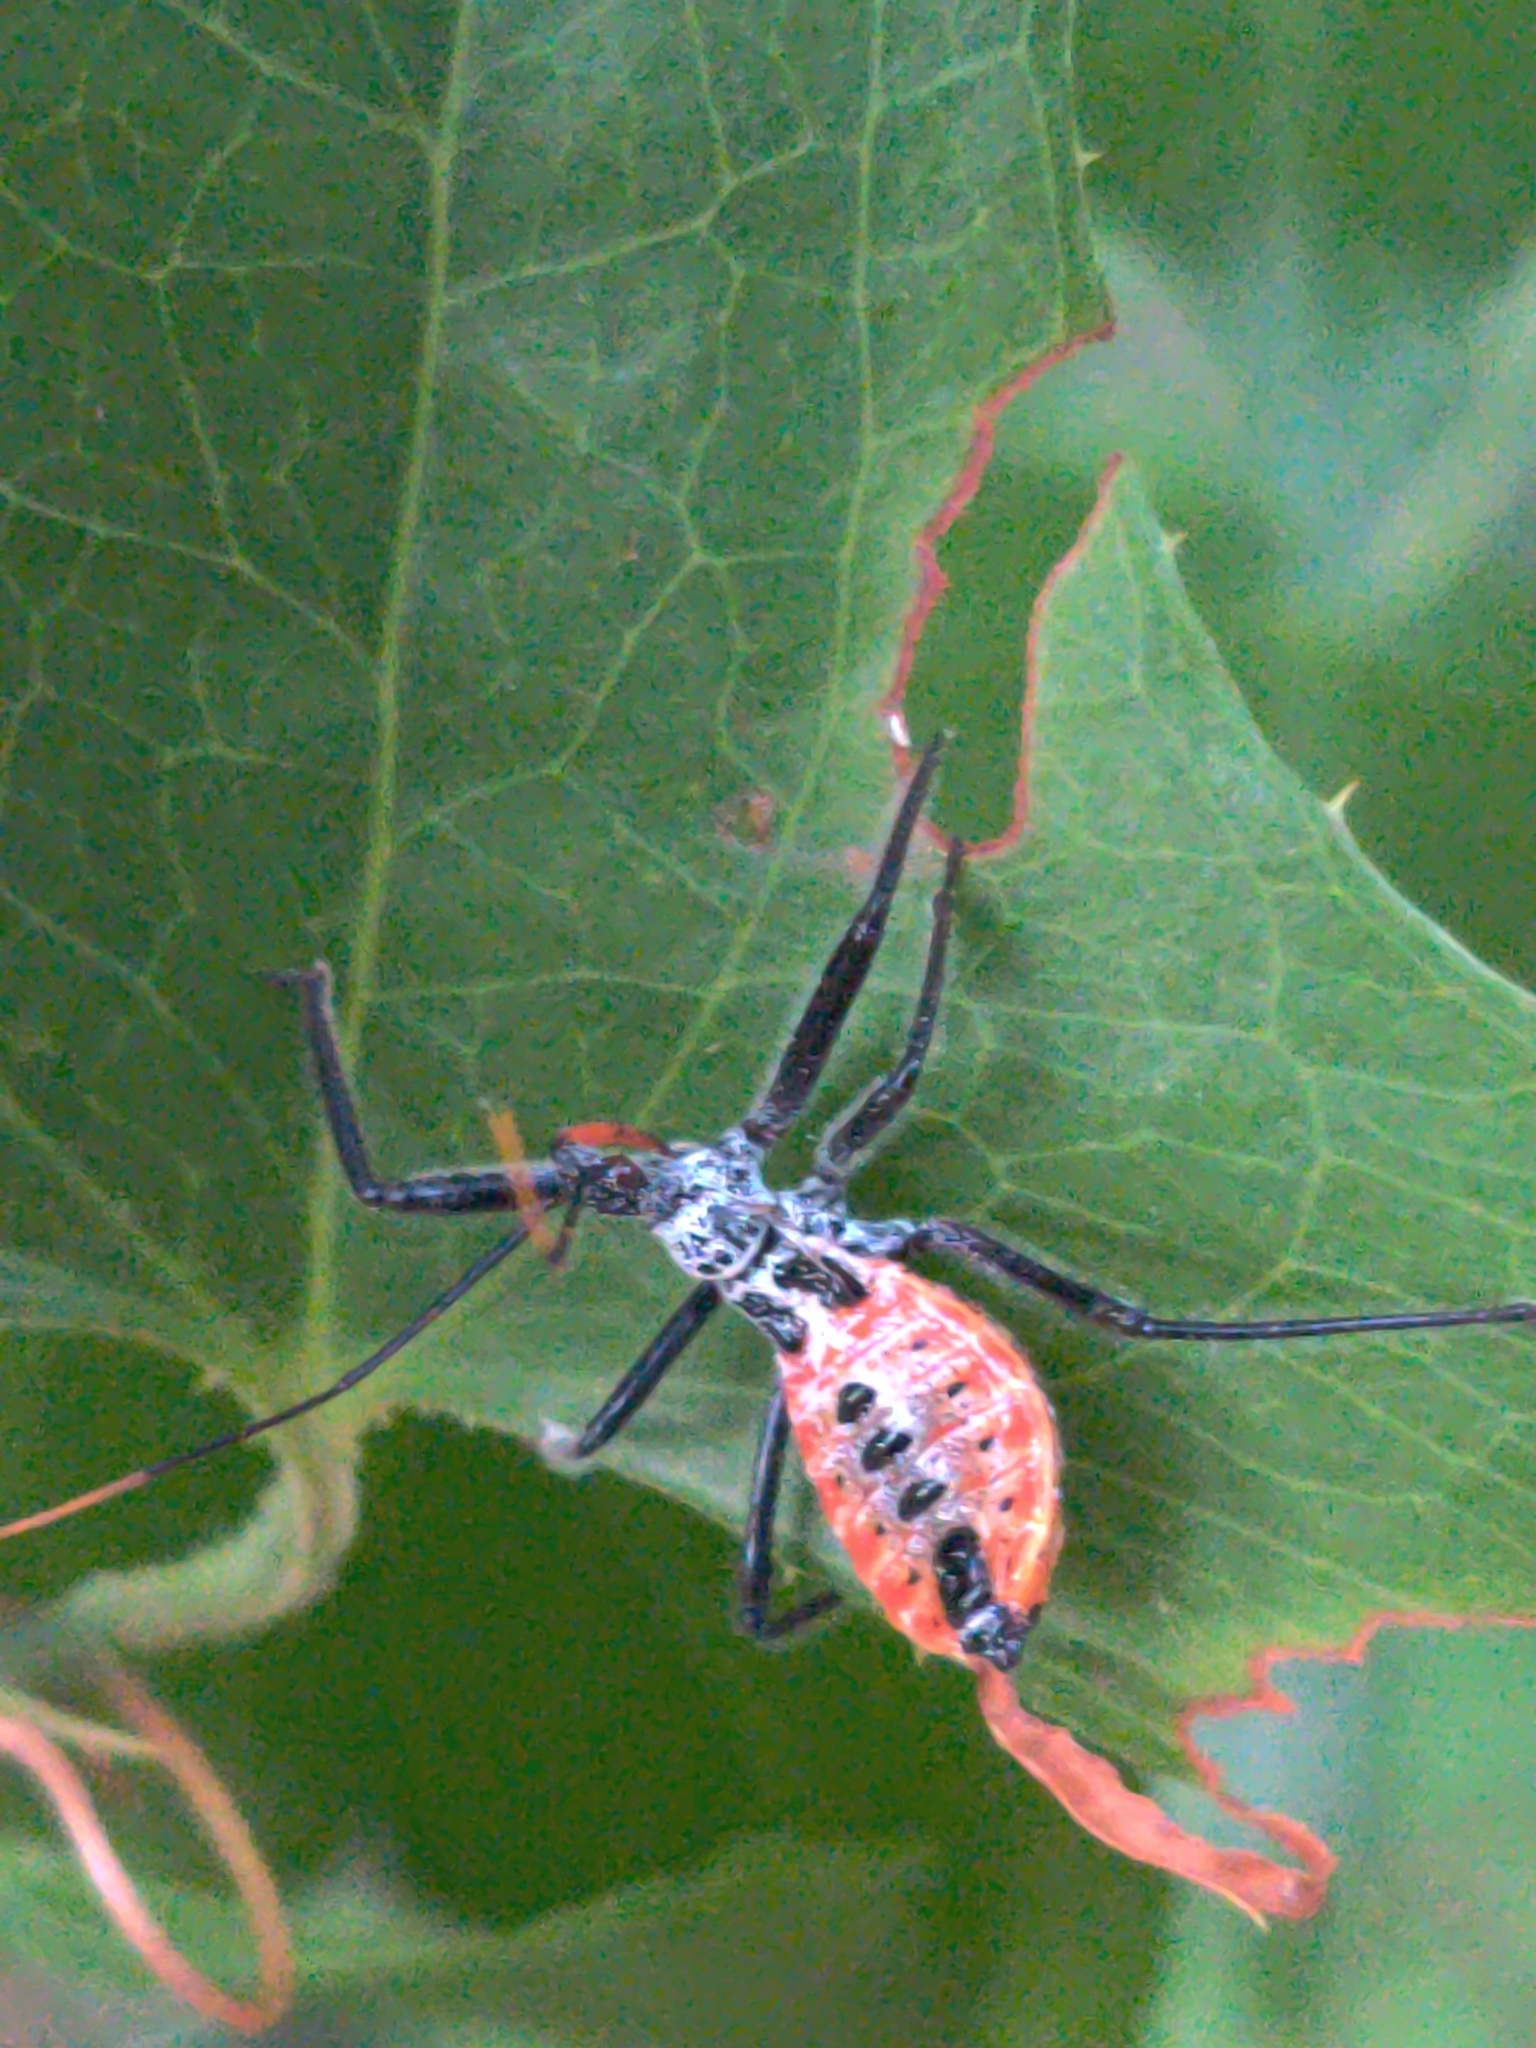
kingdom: Animalia
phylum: Arthropoda
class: Insecta
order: Hemiptera
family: Reduviidae
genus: Arilus
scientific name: Arilus cristatus
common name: North american wheel bug
